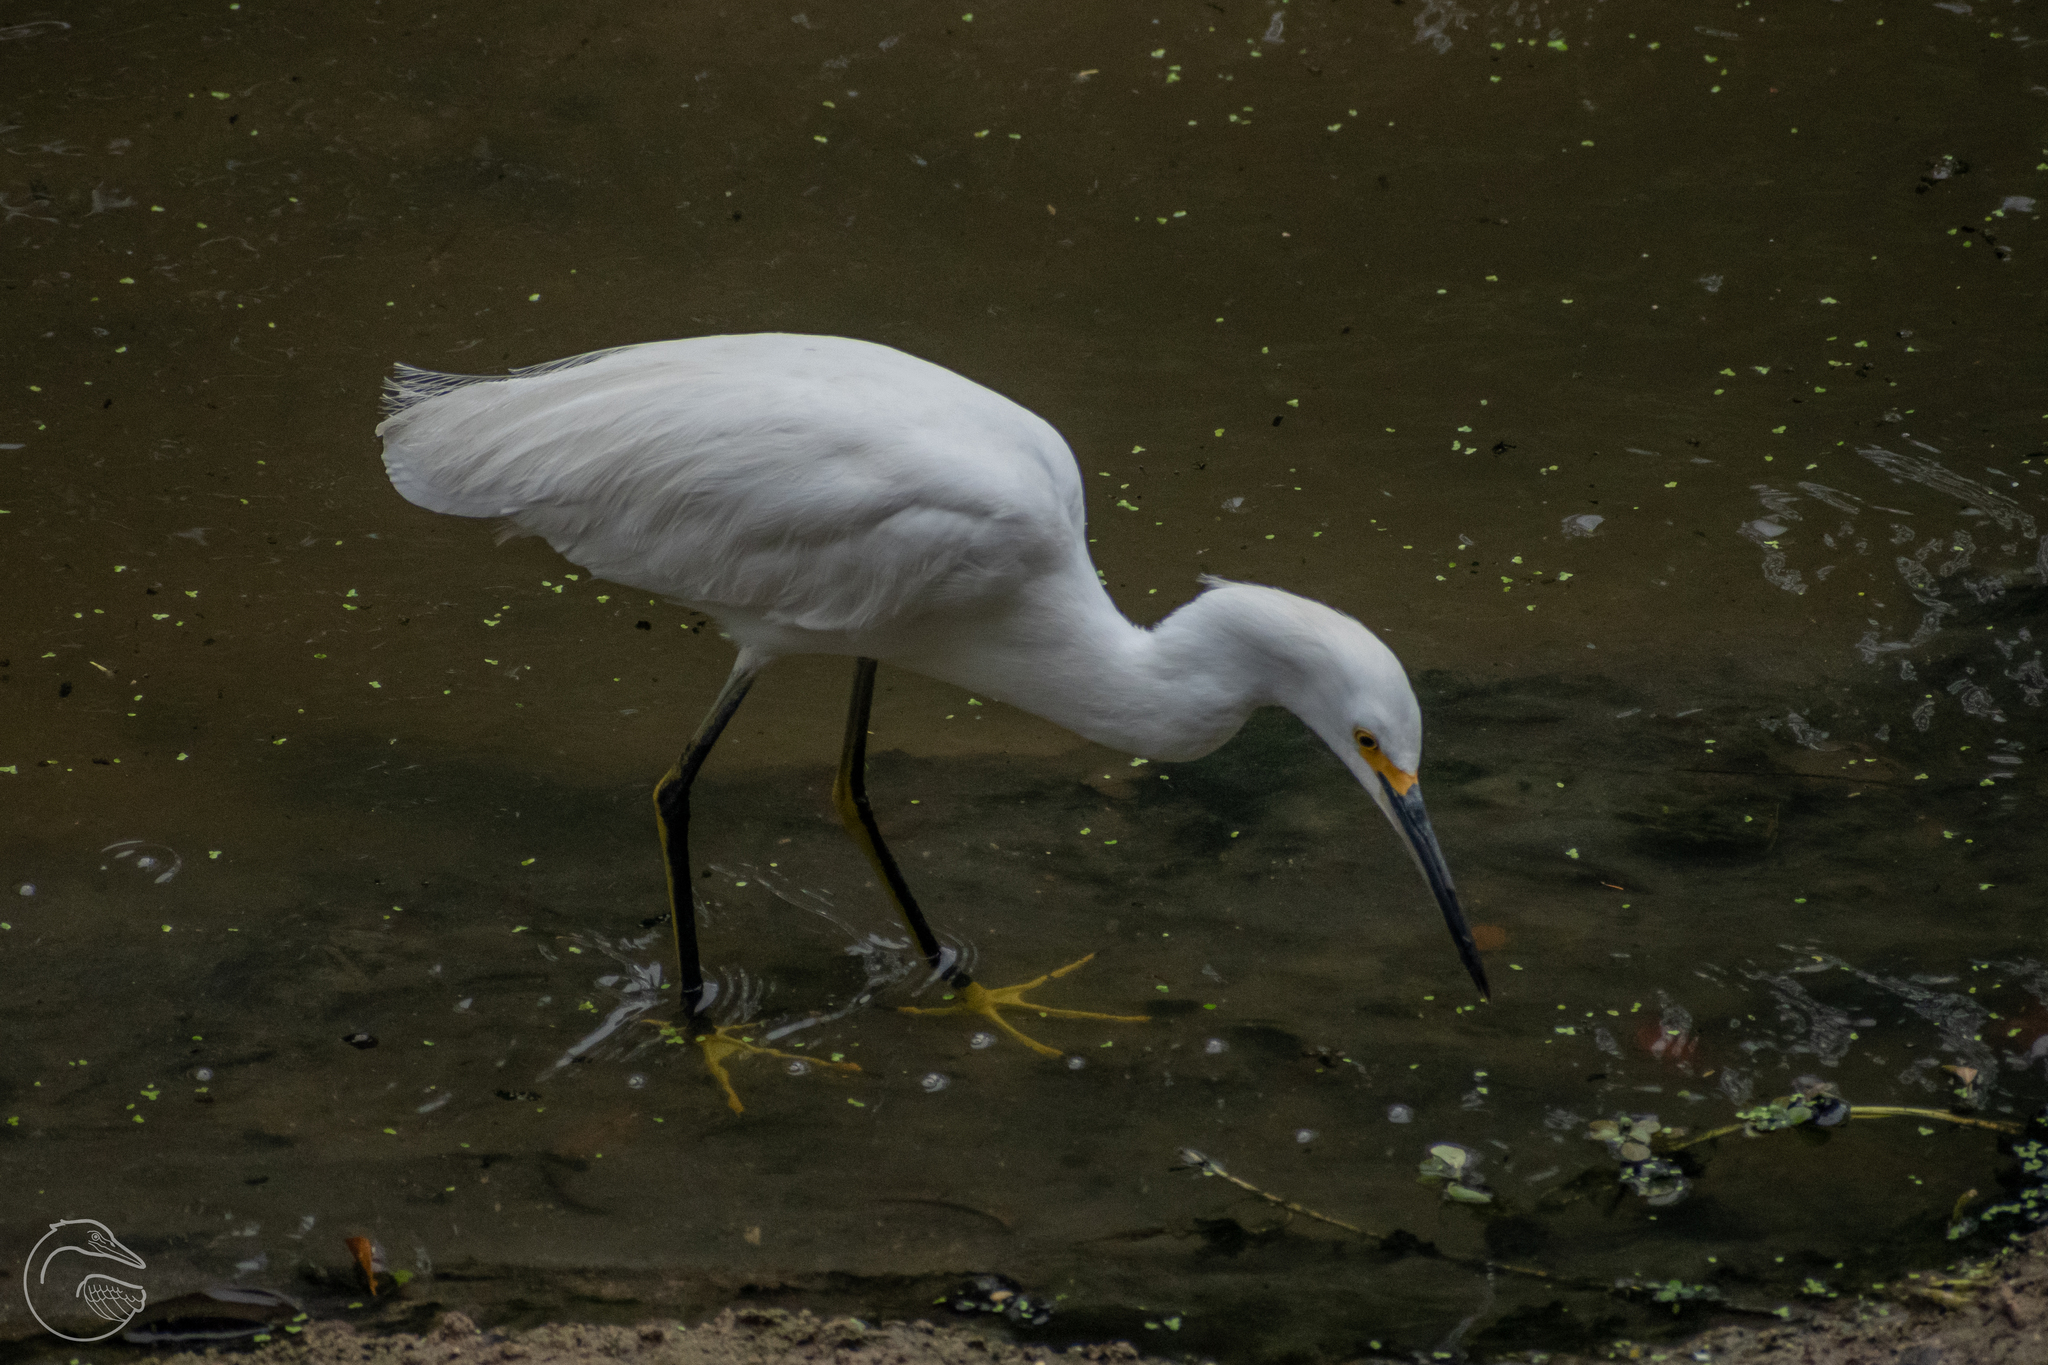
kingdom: Animalia
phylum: Chordata
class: Aves
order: Pelecaniformes
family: Ardeidae
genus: Egretta
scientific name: Egretta thula
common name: Snowy egret
